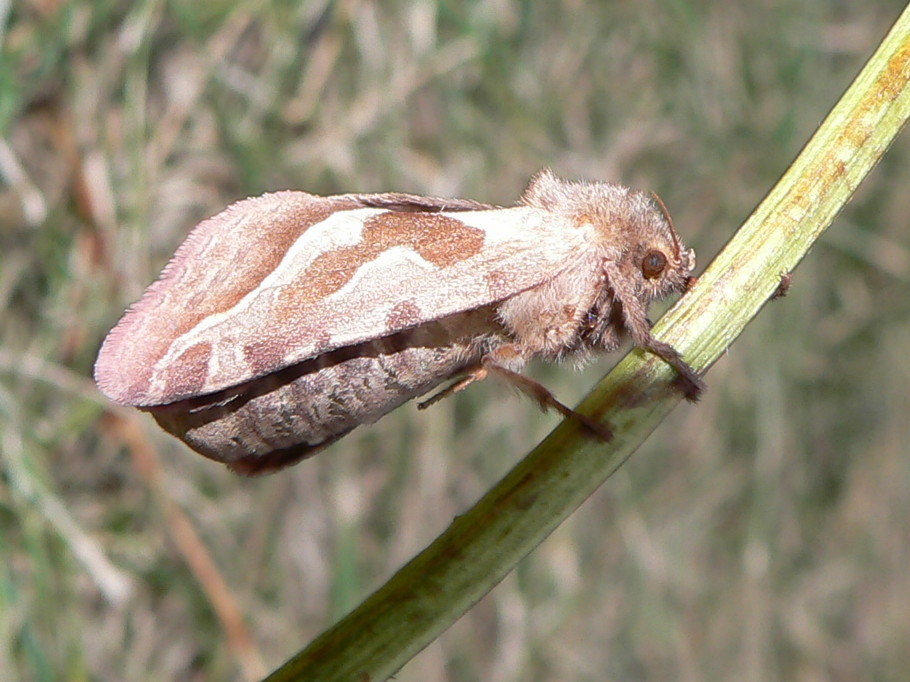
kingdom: Animalia
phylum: Arthropoda
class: Insecta
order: Lepidoptera
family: Hepialidae
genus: Triodia
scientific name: Triodia sylvina
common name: Orange swift
